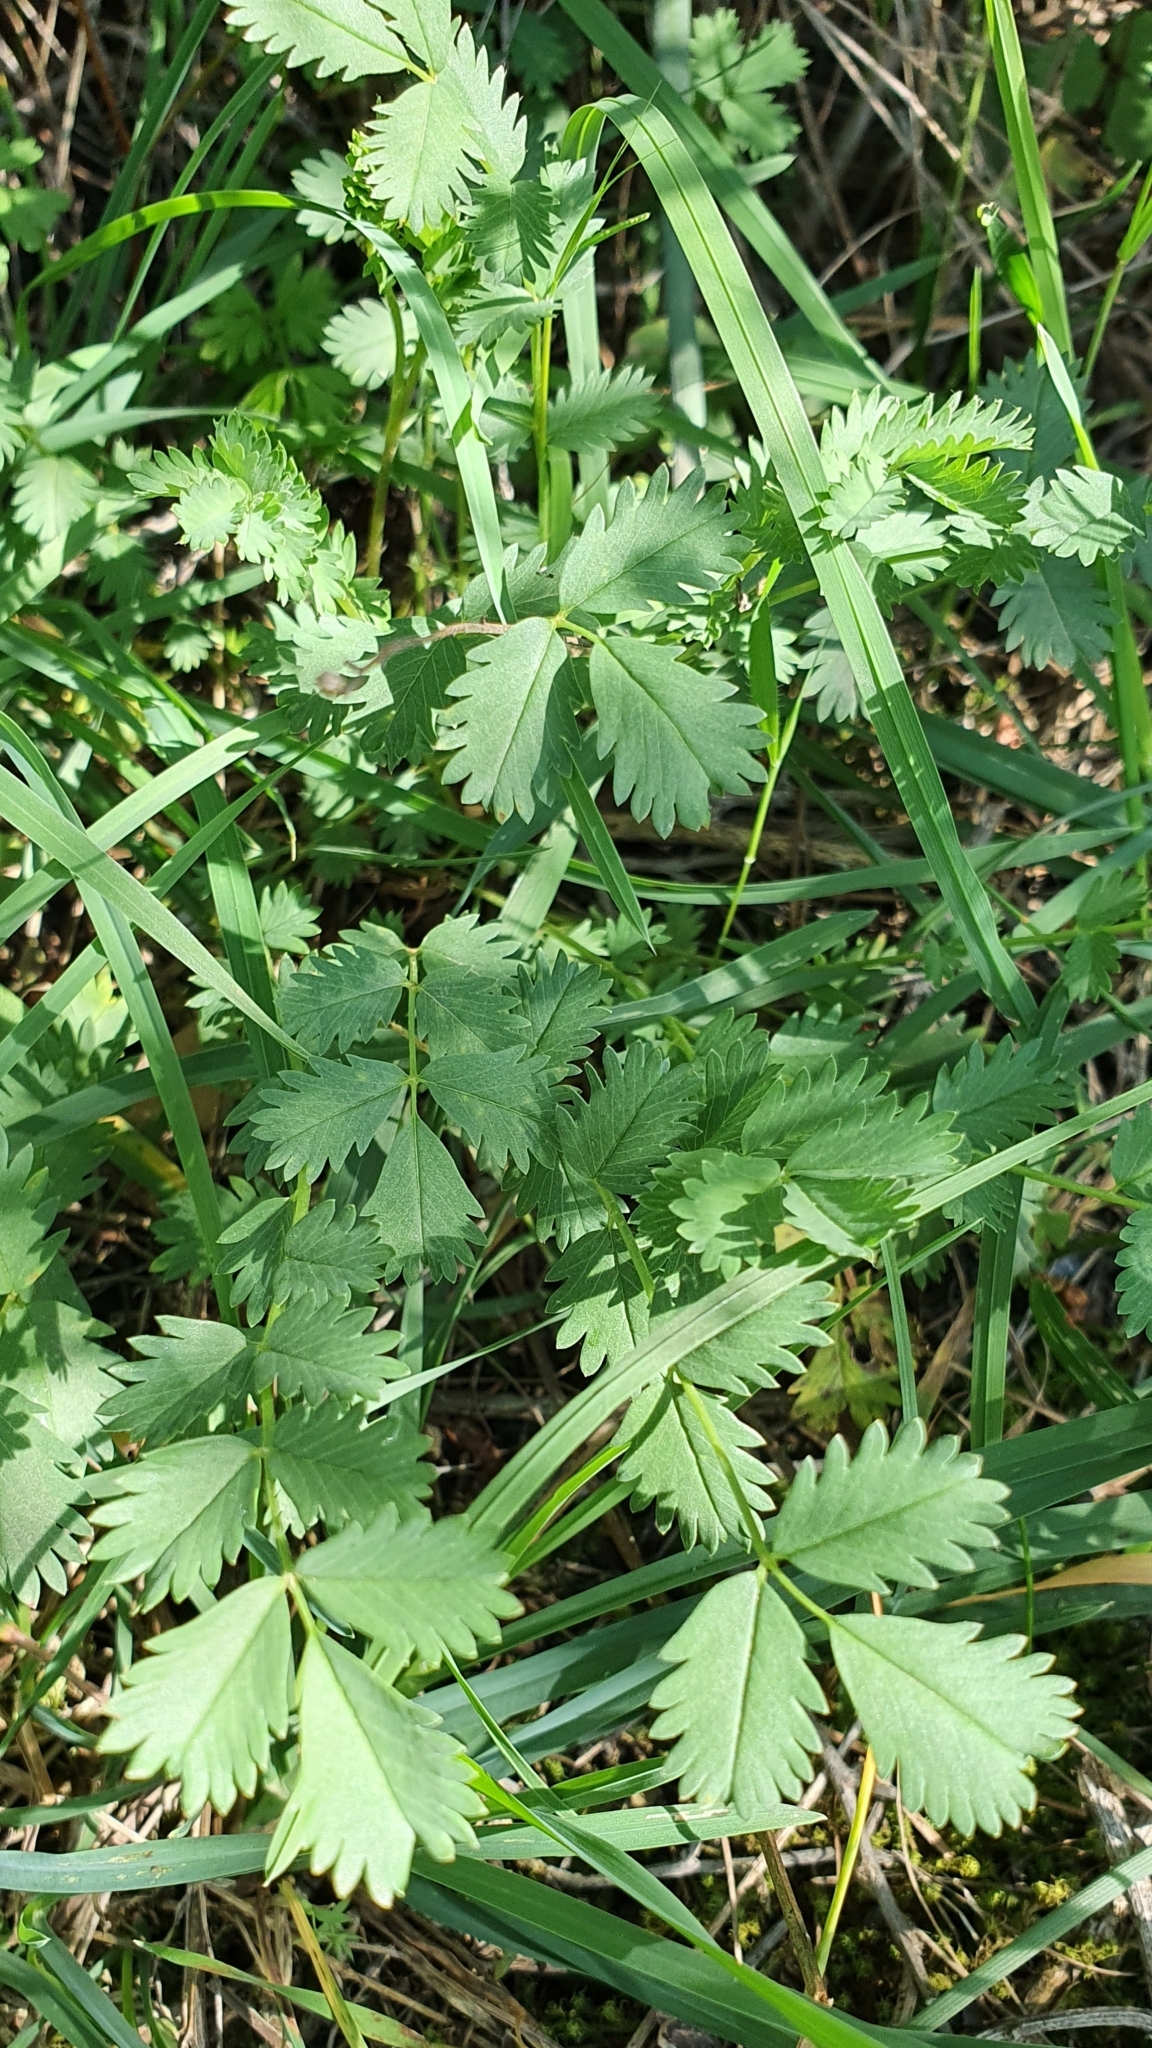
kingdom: Plantae
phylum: Tracheophyta
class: Magnoliopsida
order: Rosales
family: Rosaceae
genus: Poterium
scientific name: Poterium
